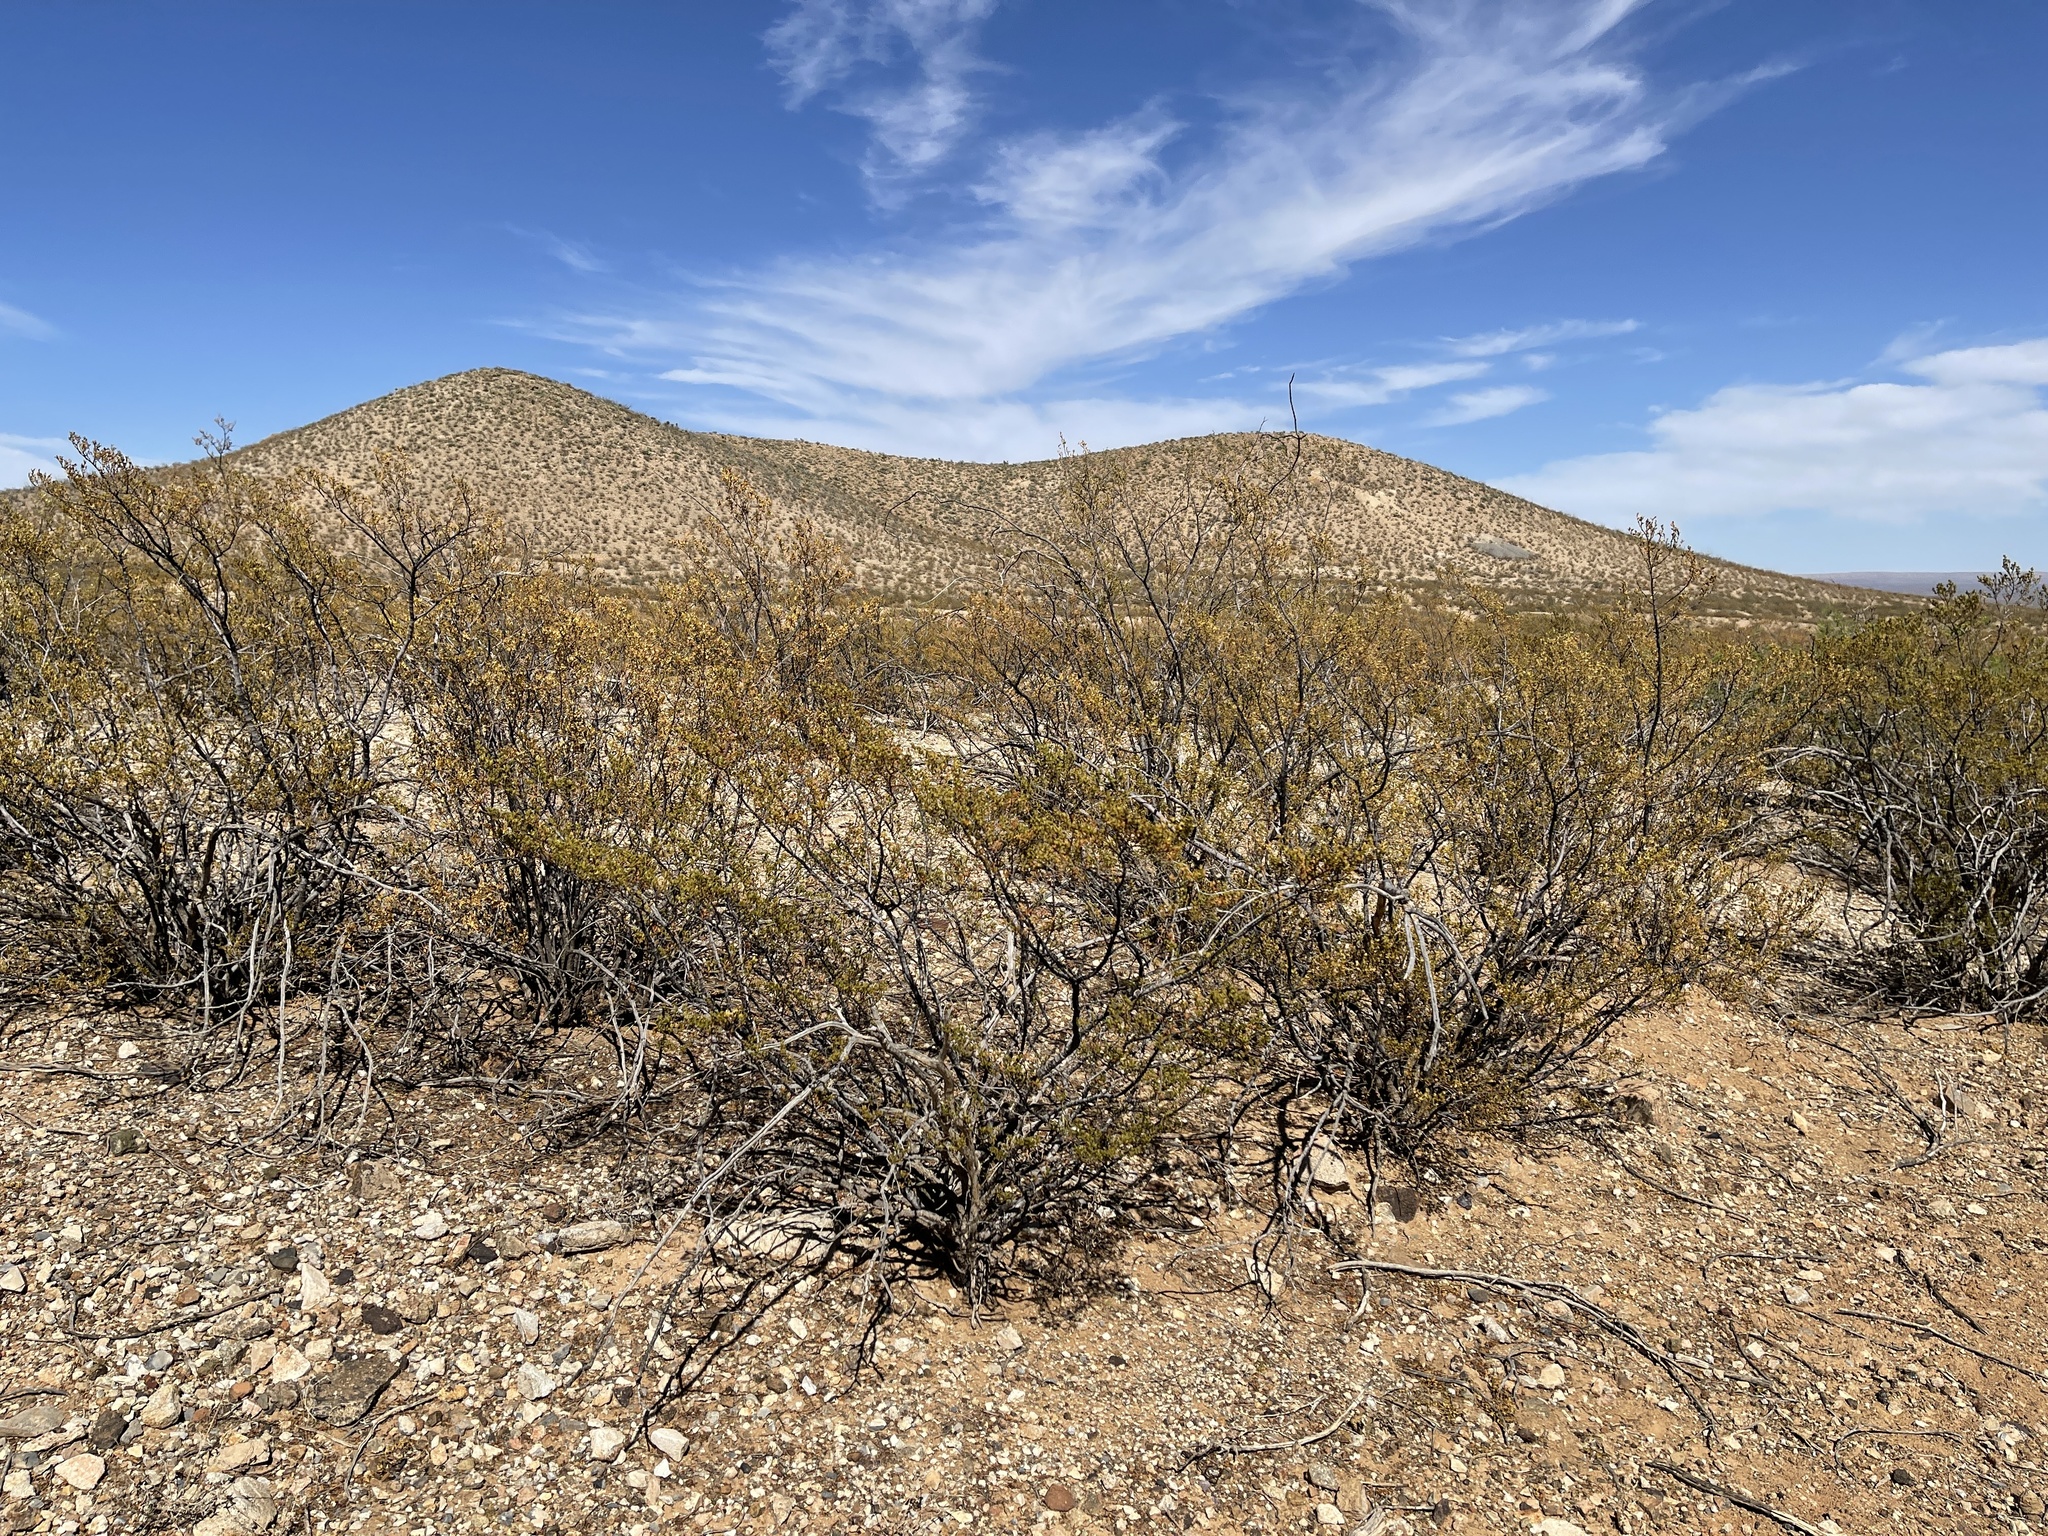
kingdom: Plantae
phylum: Tracheophyta
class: Magnoliopsida
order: Zygophyllales
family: Zygophyllaceae
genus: Larrea
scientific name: Larrea tridentata
